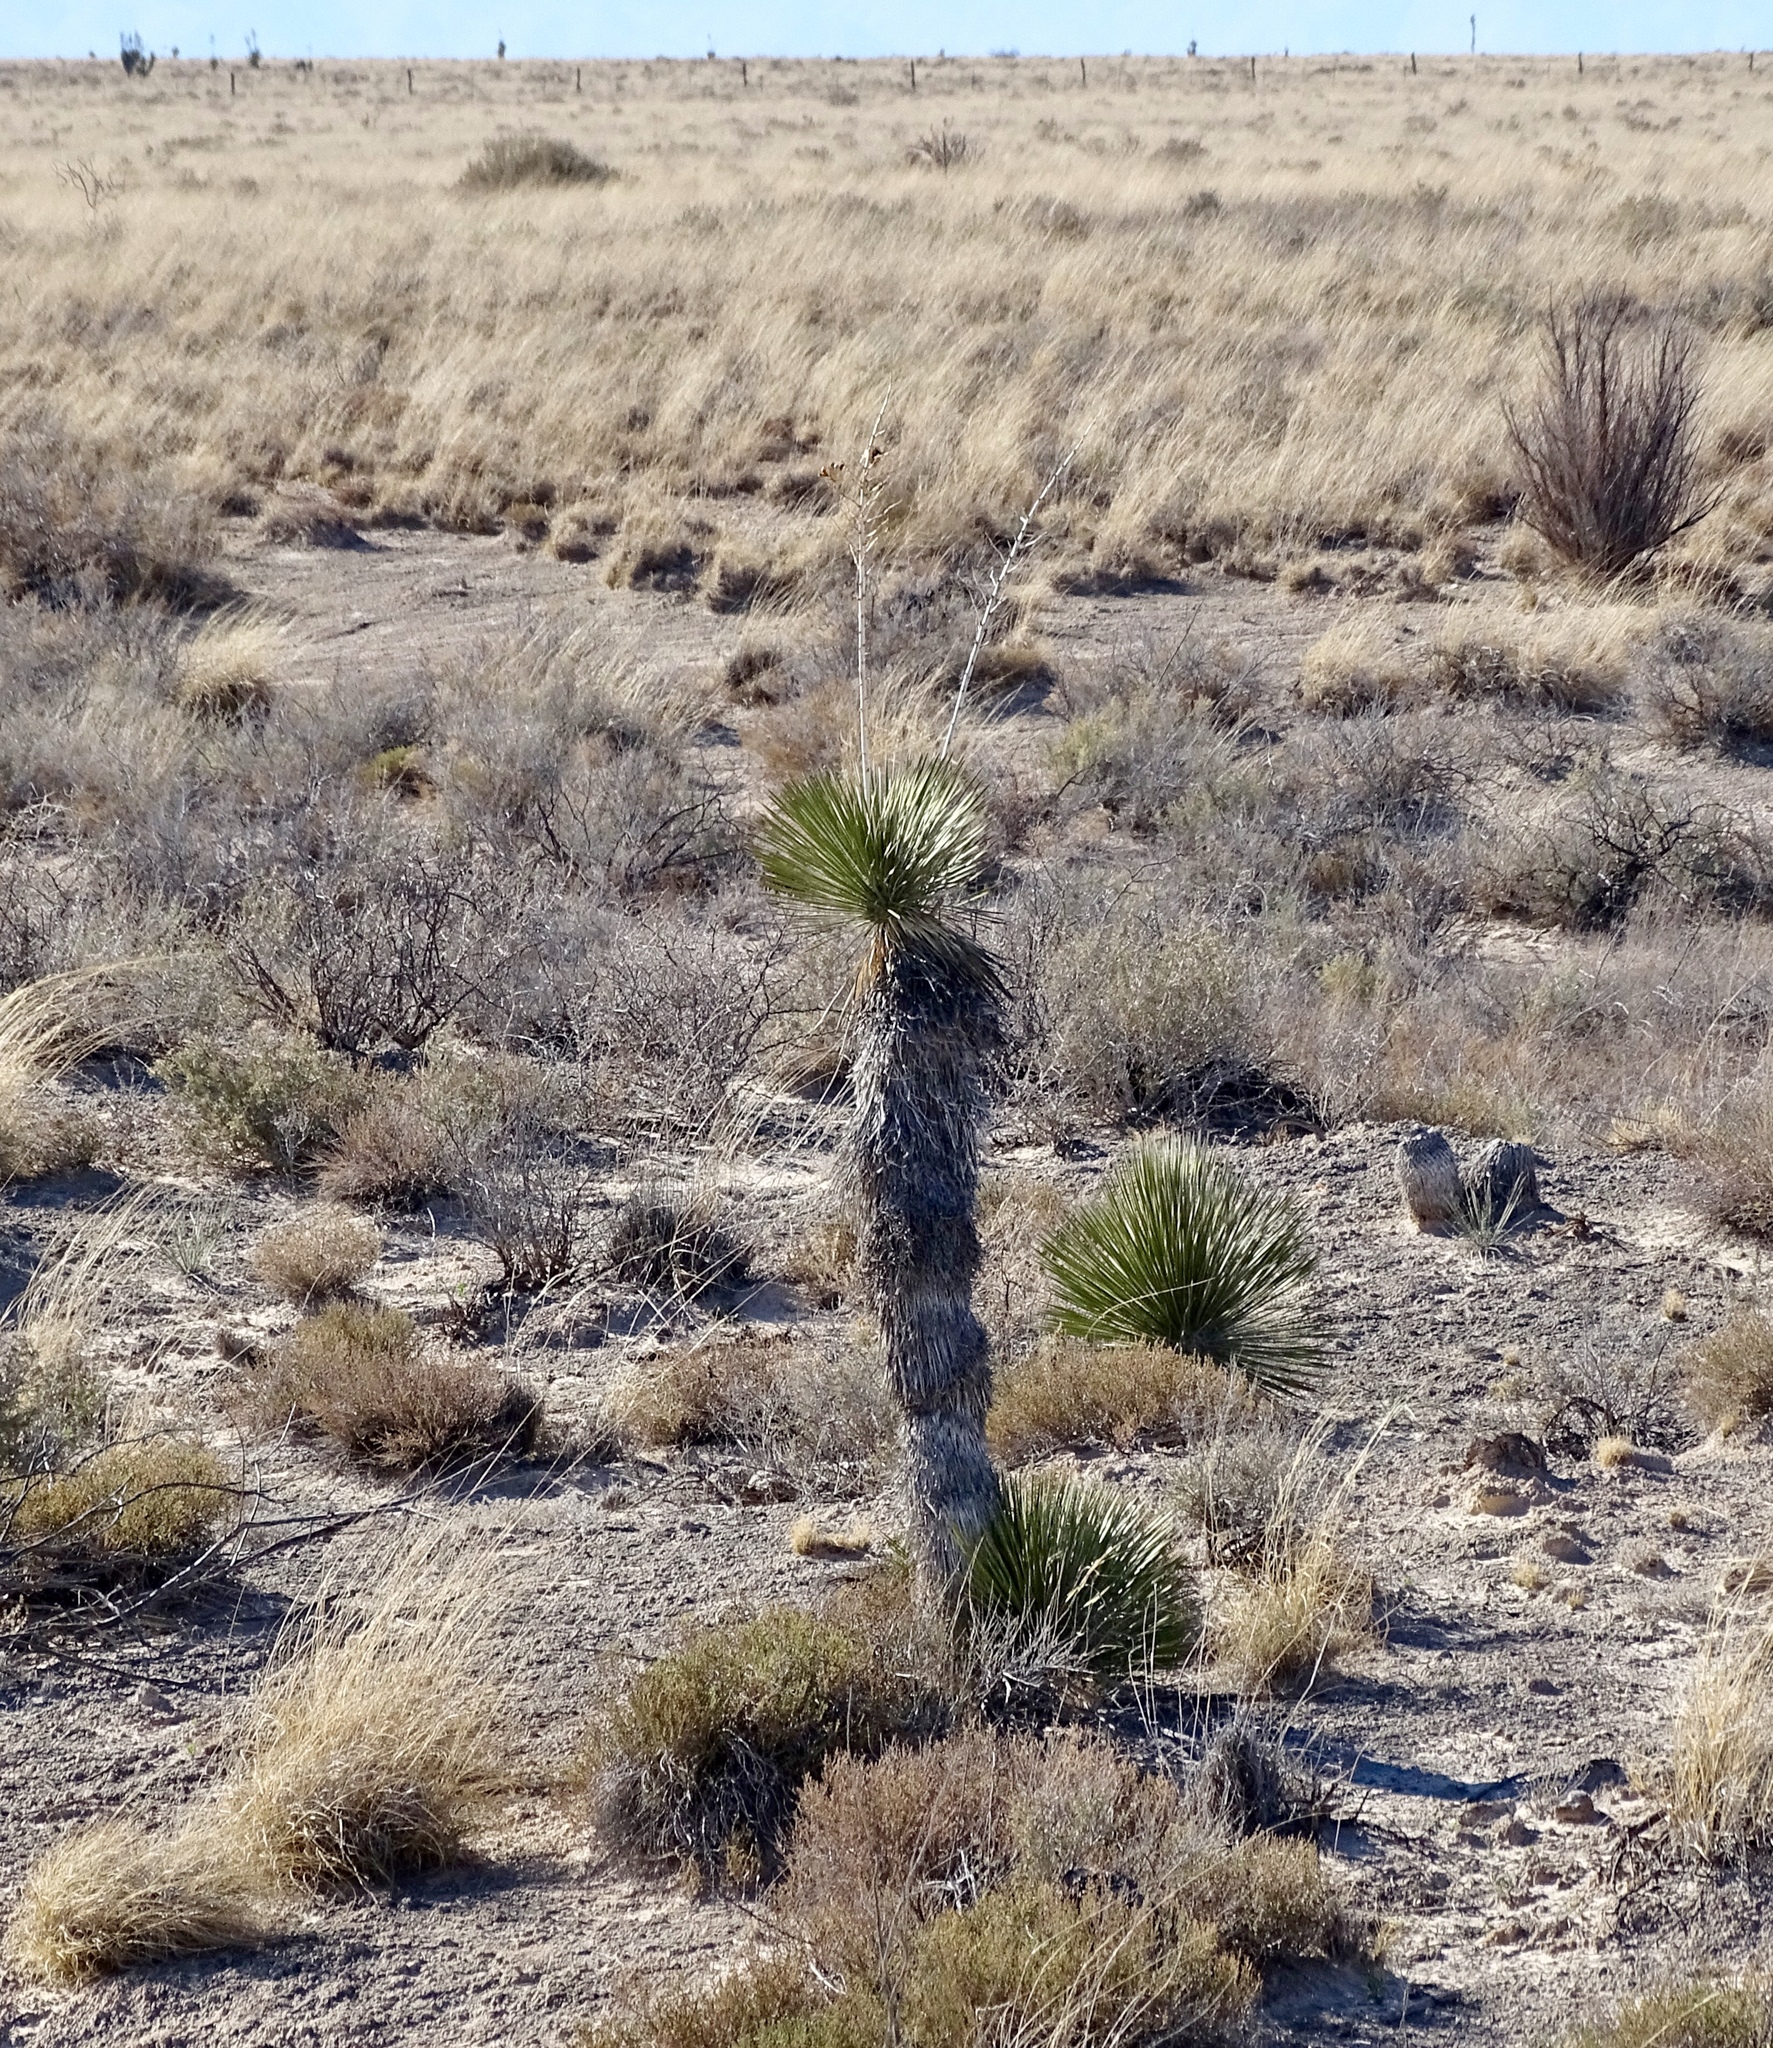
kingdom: Plantae
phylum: Tracheophyta
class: Liliopsida
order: Asparagales
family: Asparagaceae
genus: Yucca
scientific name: Yucca elata
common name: Palmella
